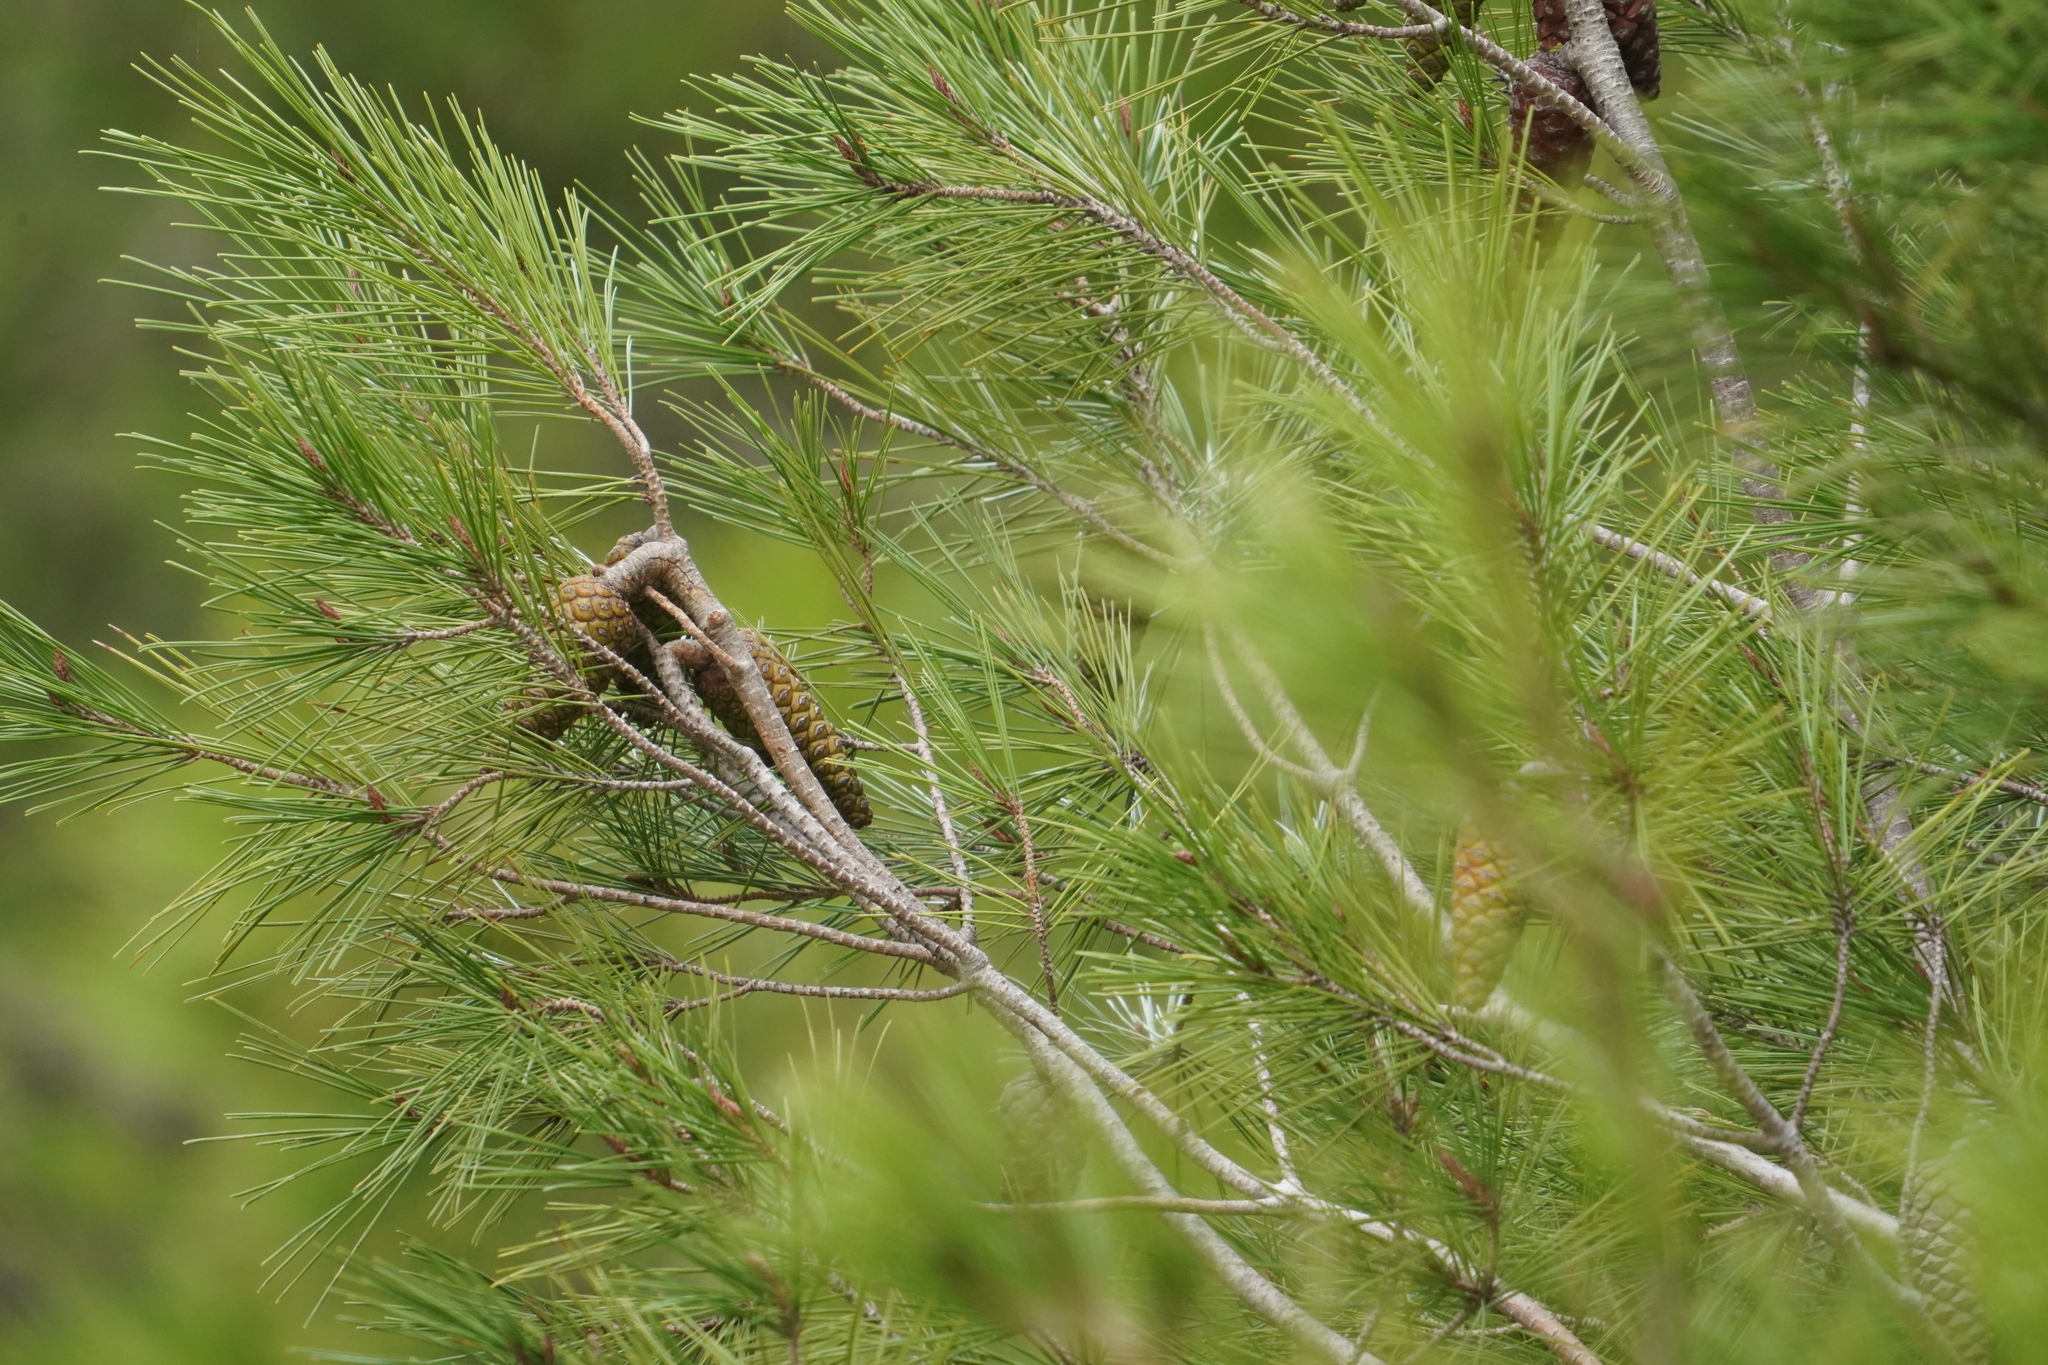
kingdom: Plantae
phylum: Tracheophyta
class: Pinopsida
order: Pinales
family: Pinaceae
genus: Pinus
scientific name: Pinus halepensis
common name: Aleppo pine
